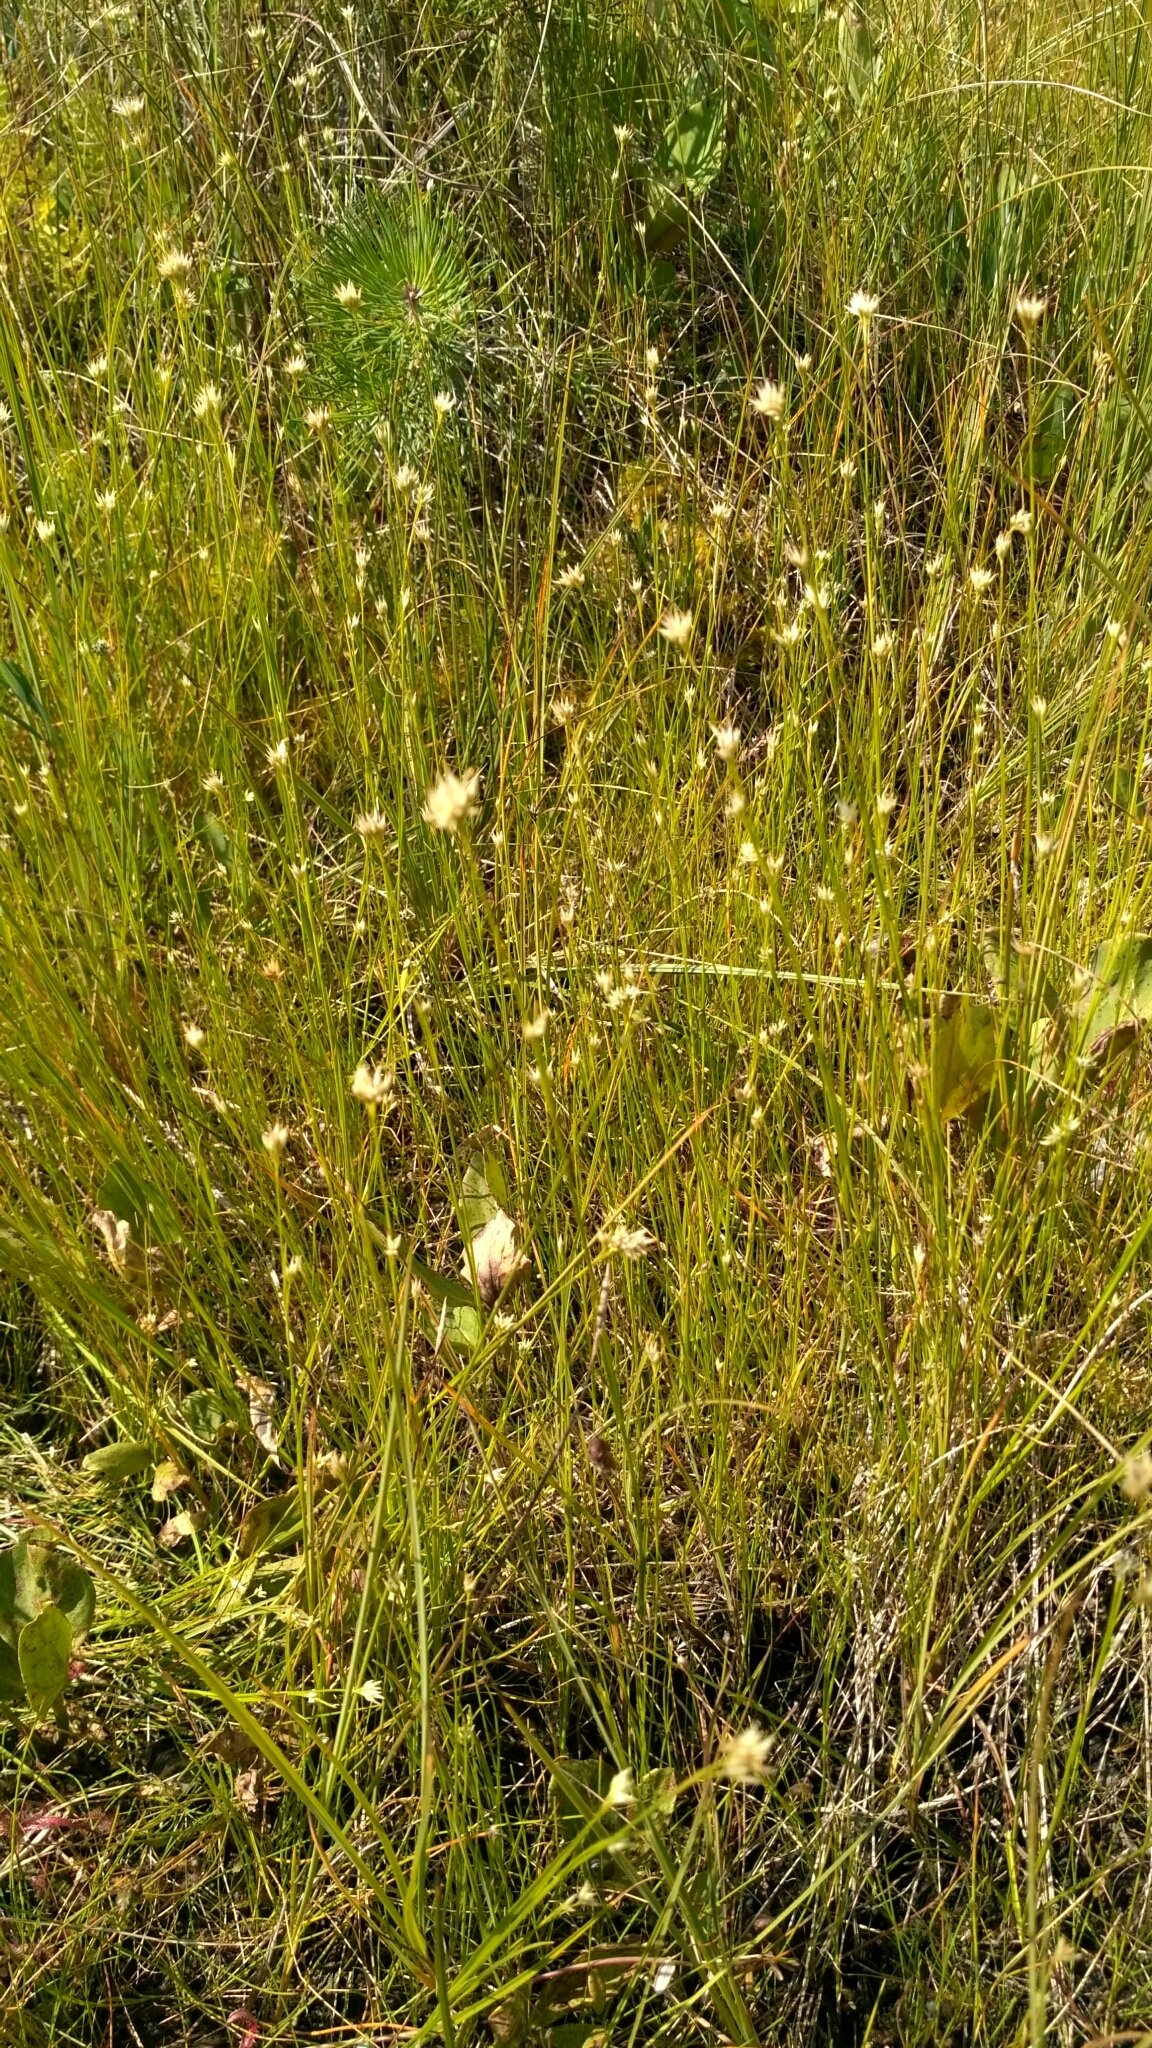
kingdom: Plantae
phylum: Tracheophyta
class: Liliopsida
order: Poales
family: Cyperaceae
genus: Rhynchospora
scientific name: Rhynchospora alba
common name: White beak-sedge
